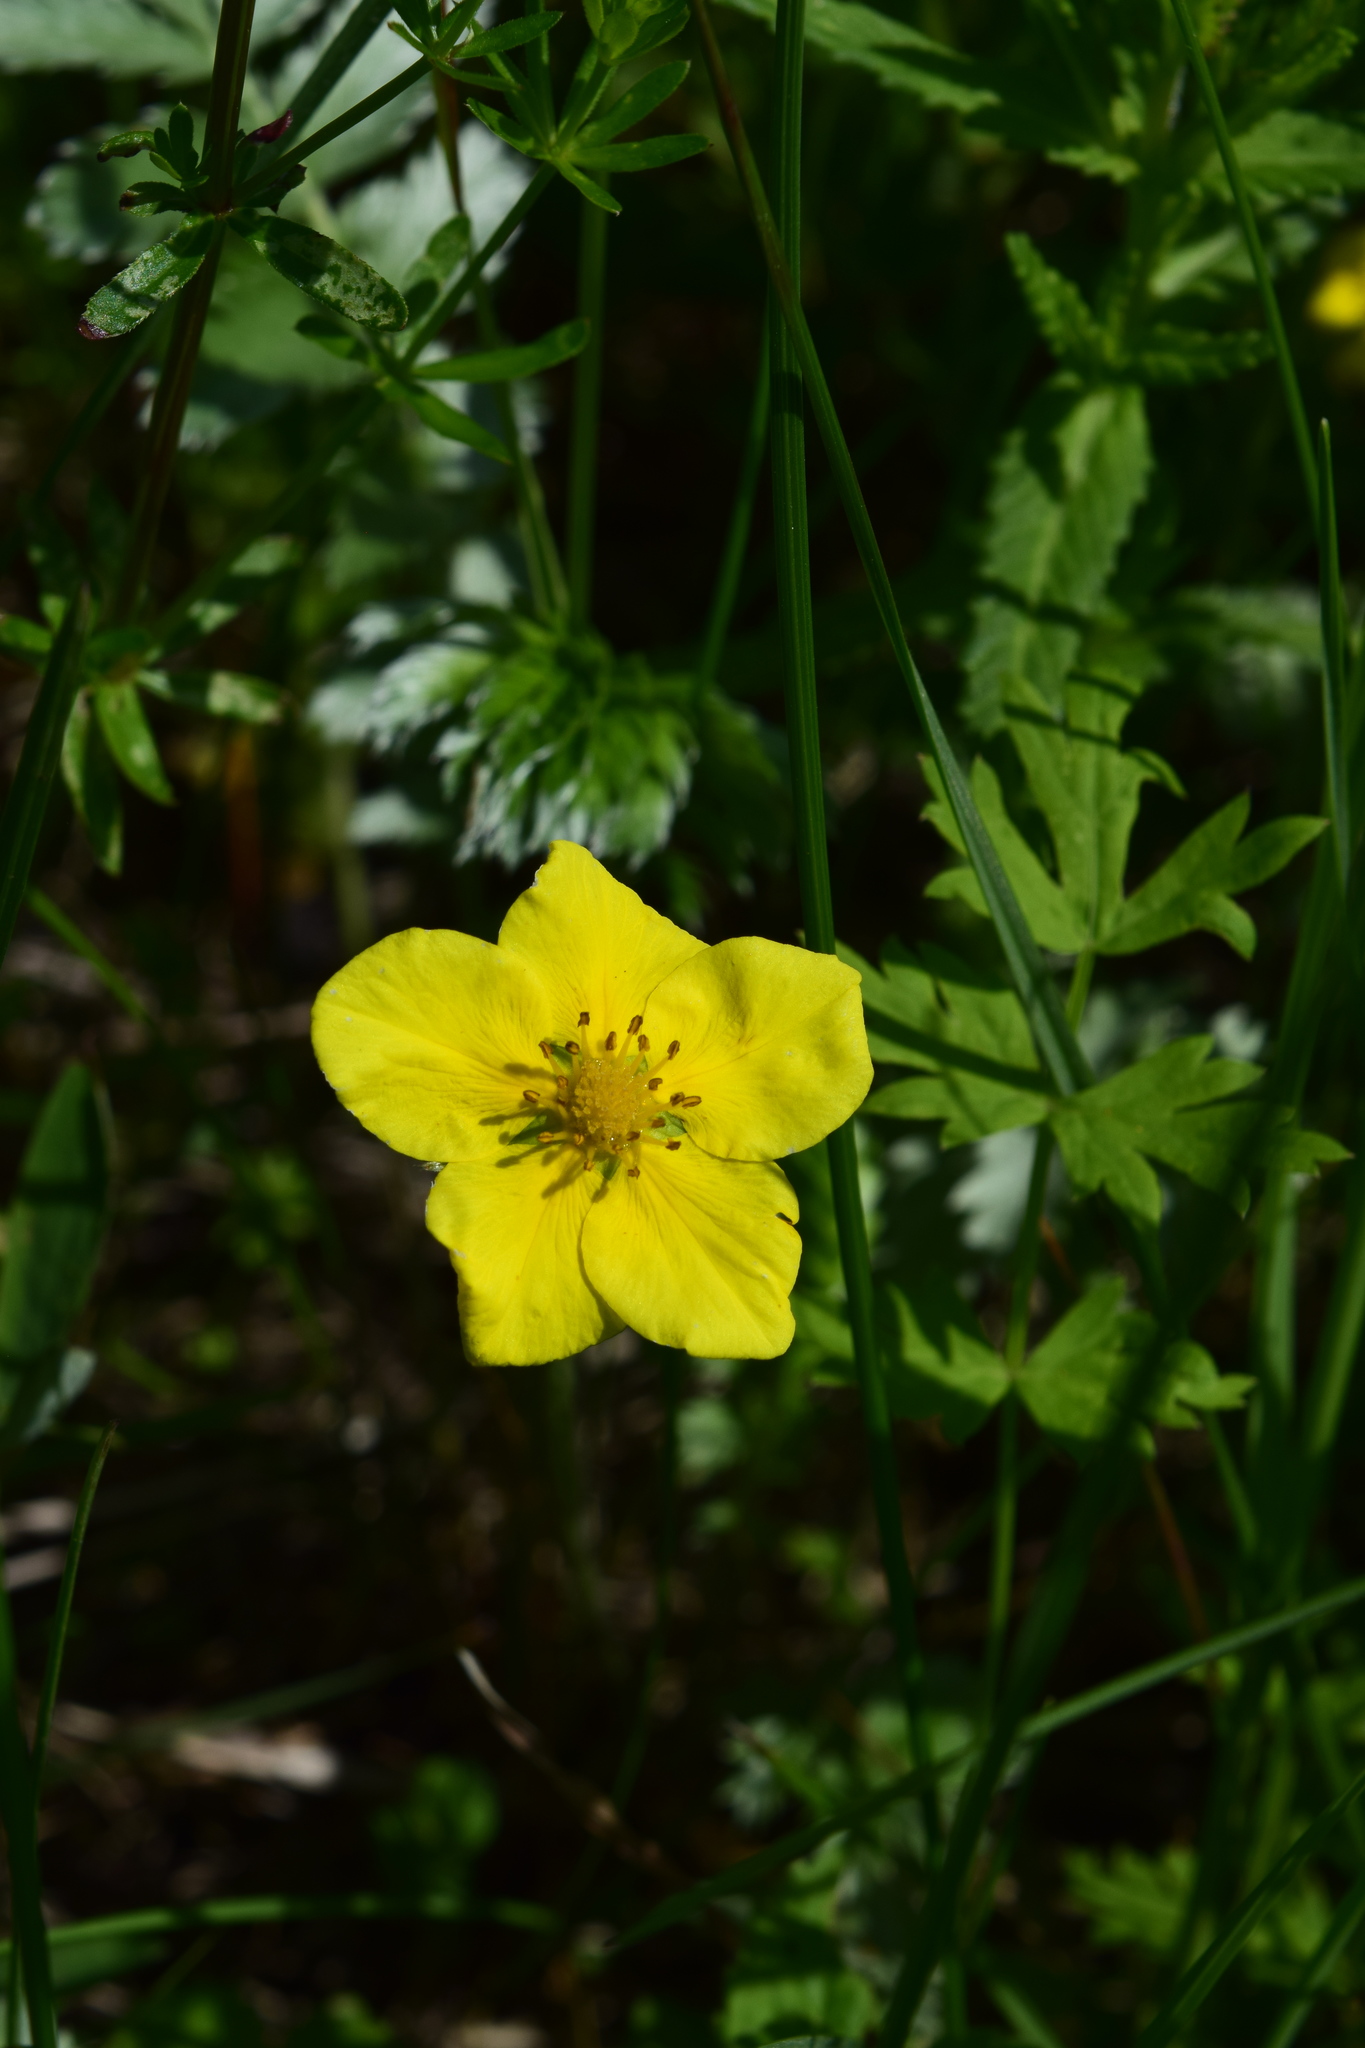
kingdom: Plantae
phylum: Tracheophyta
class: Magnoliopsida
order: Rosales
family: Rosaceae
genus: Argentina
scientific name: Argentina anserina
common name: Common silverweed
